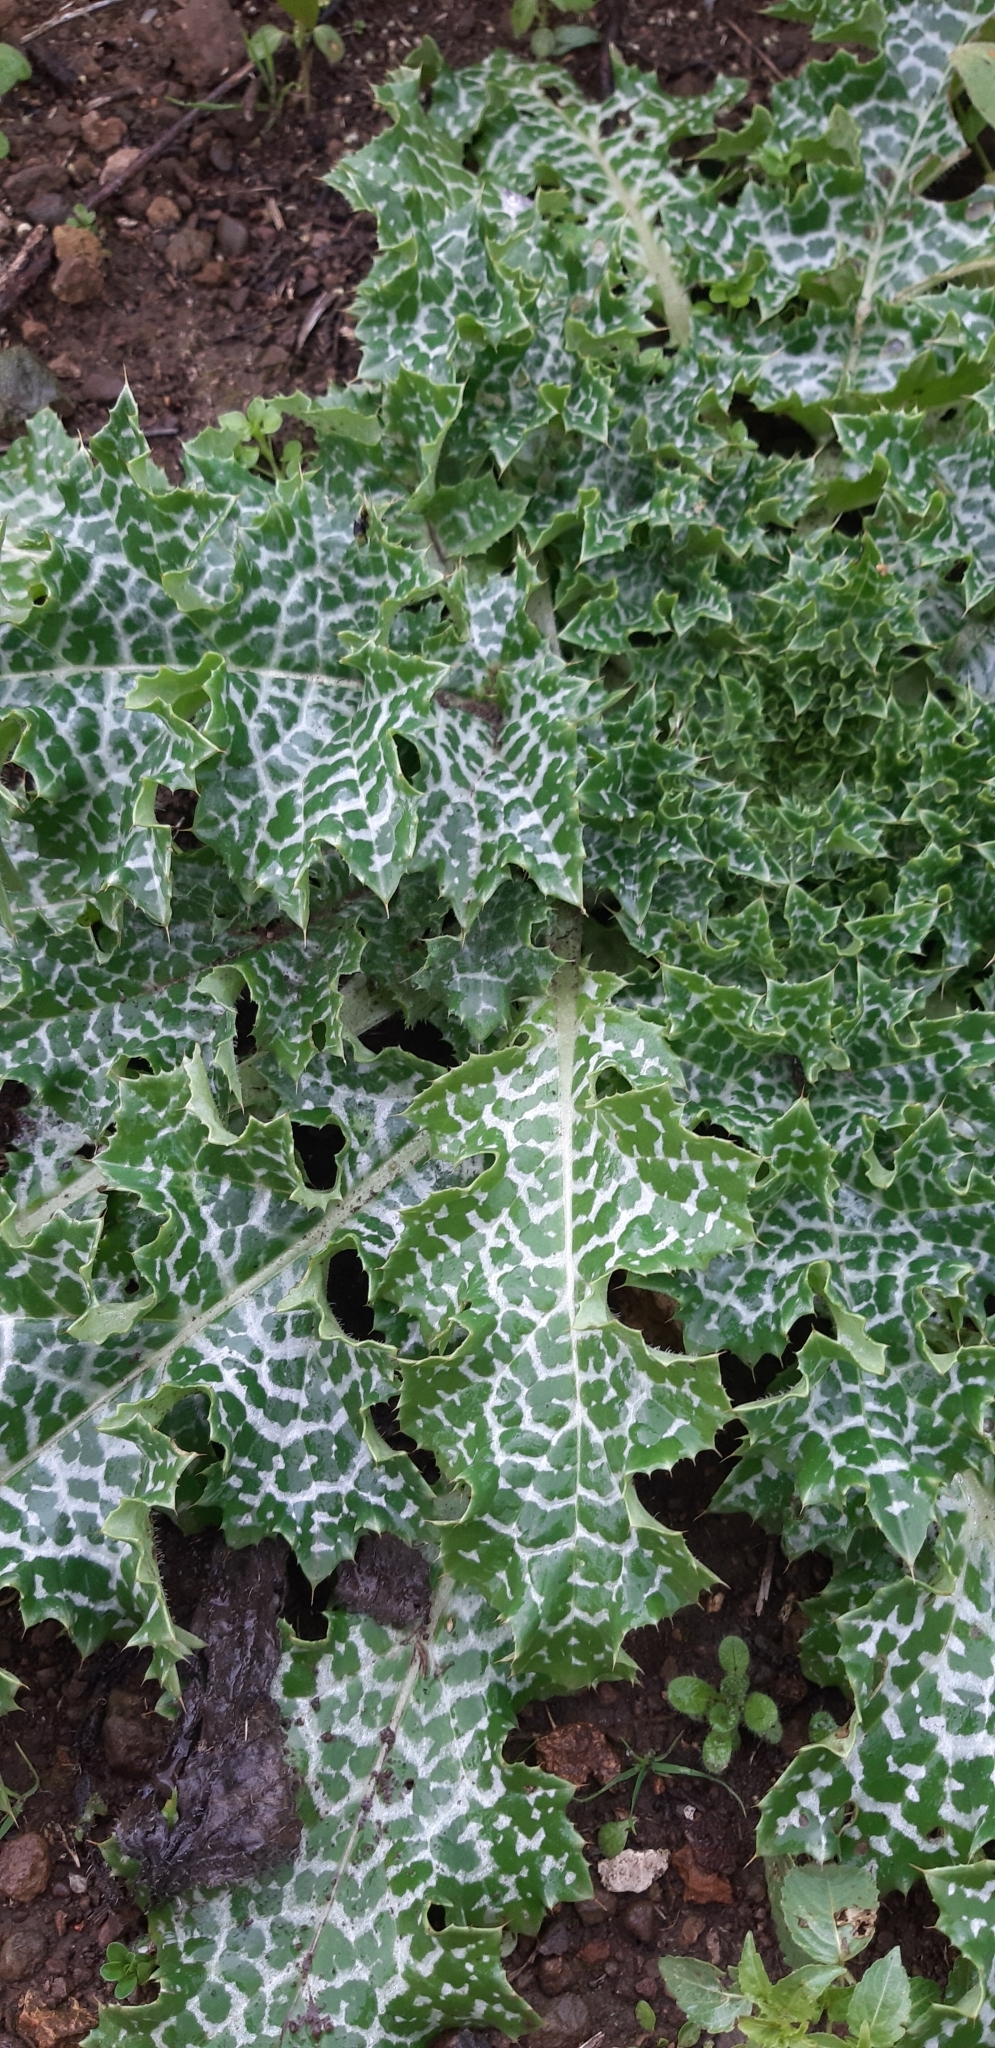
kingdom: Plantae
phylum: Tracheophyta
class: Magnoliopsida
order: Asterales
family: Asteraceae
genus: Silybum
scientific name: Silybum marianum
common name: Milk thistle
